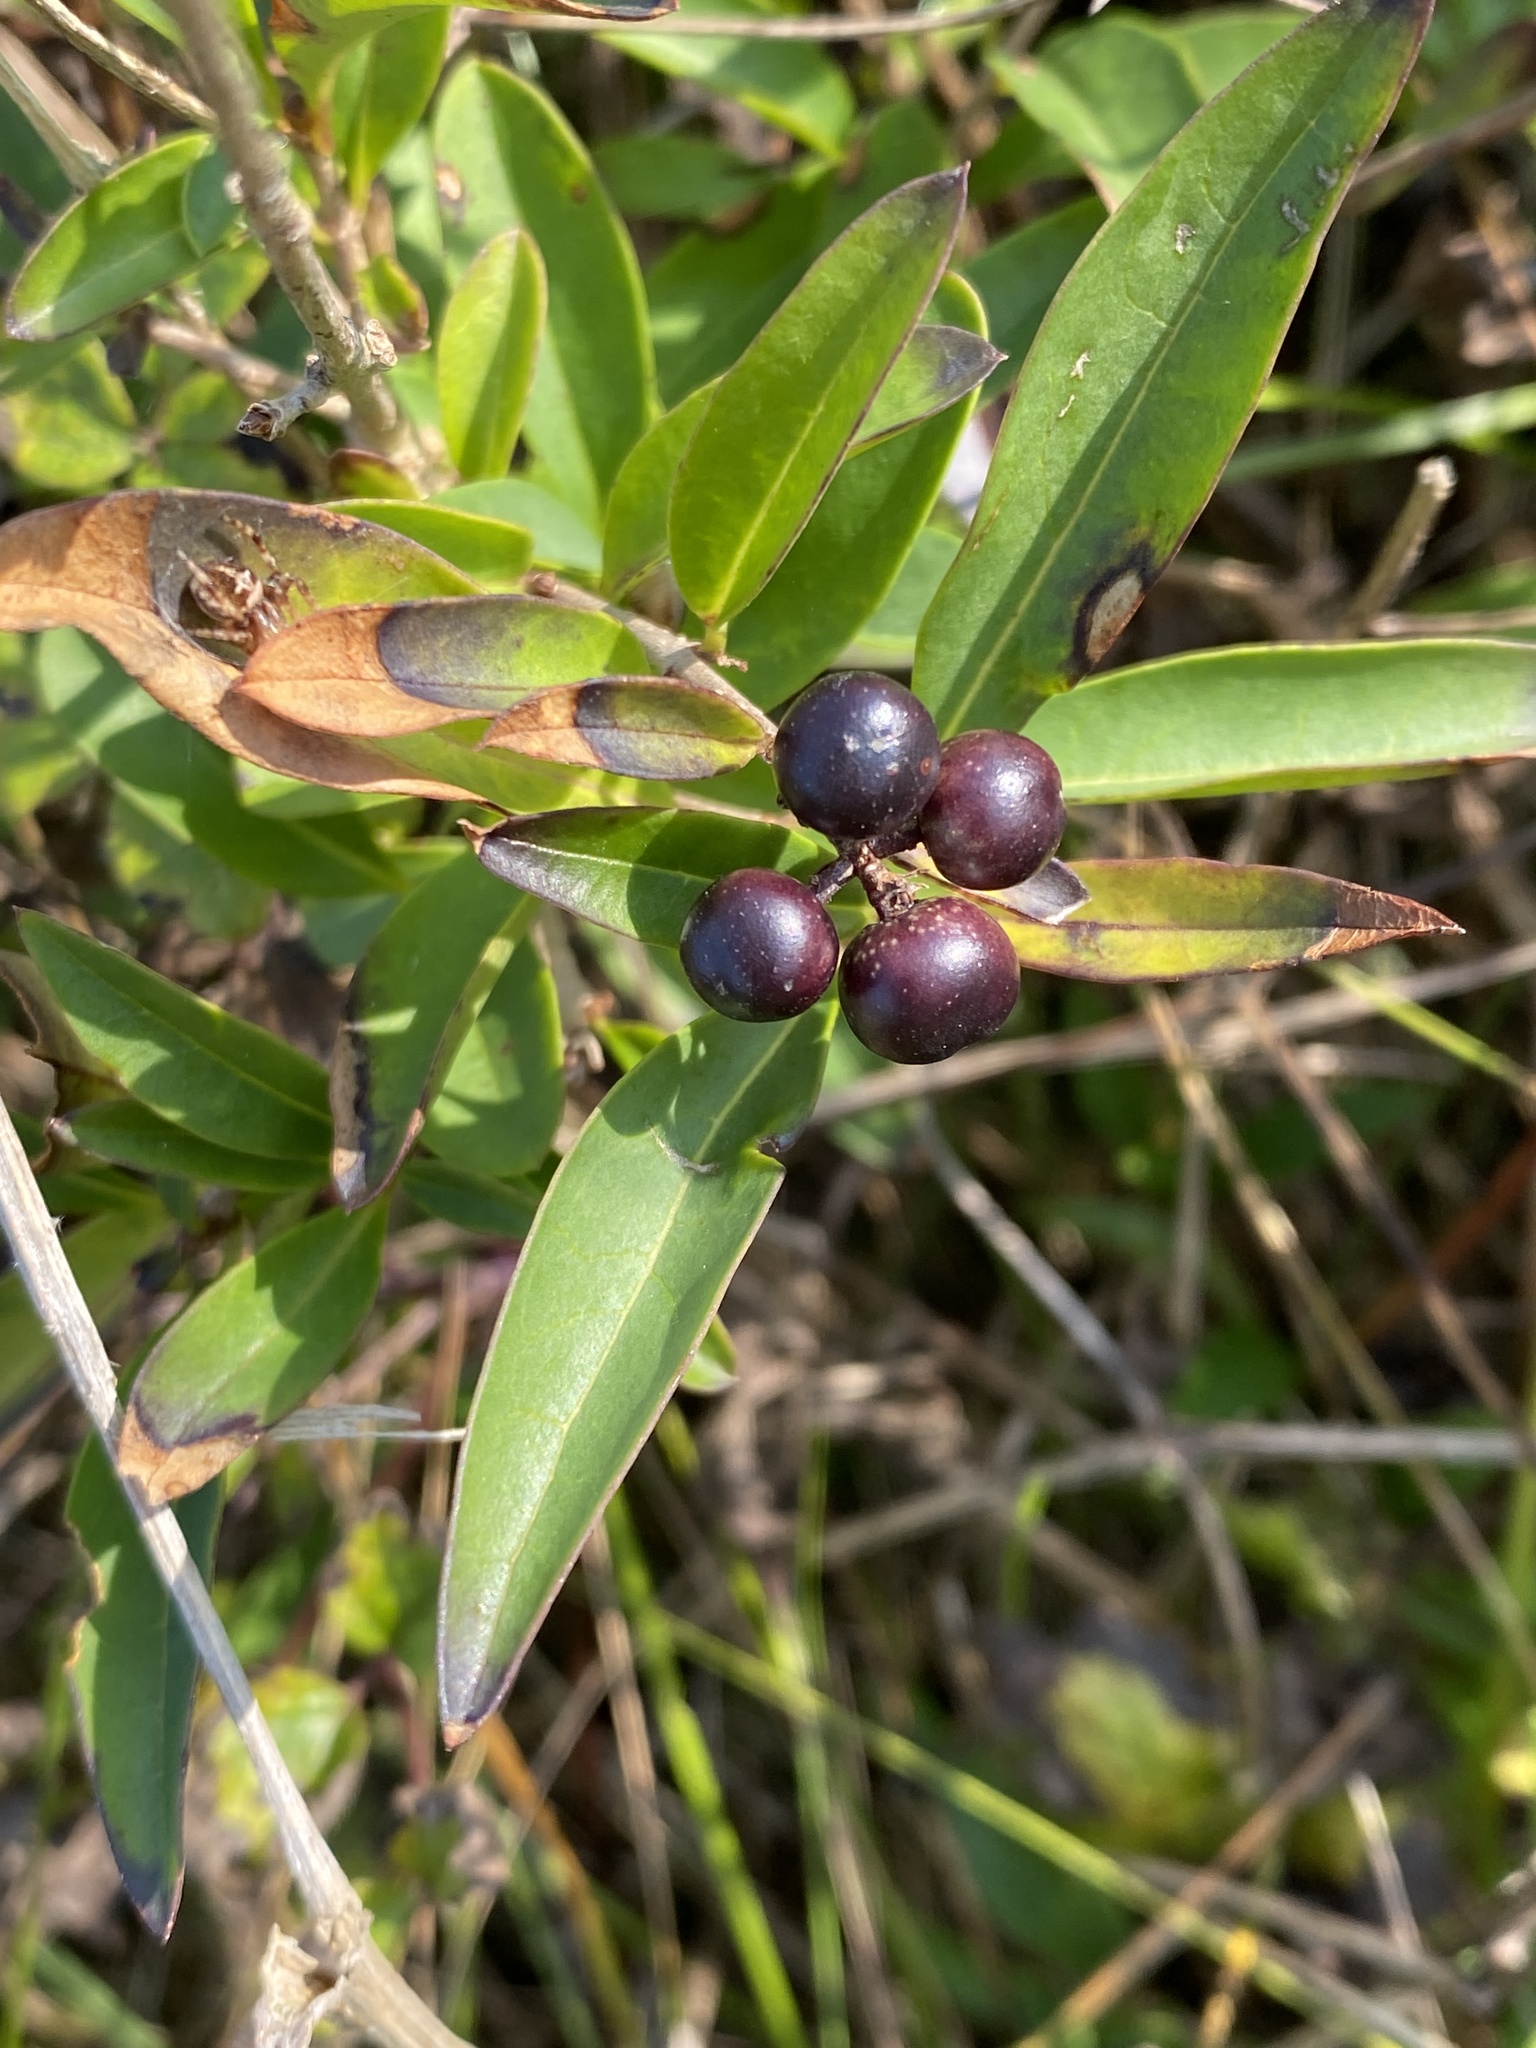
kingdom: Plantae
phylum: Tracheophyta
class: Magnoliopsida
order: Lamiales
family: Oleaceae
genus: Ligustrum
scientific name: Ligustrum vulgare
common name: Wild privet
